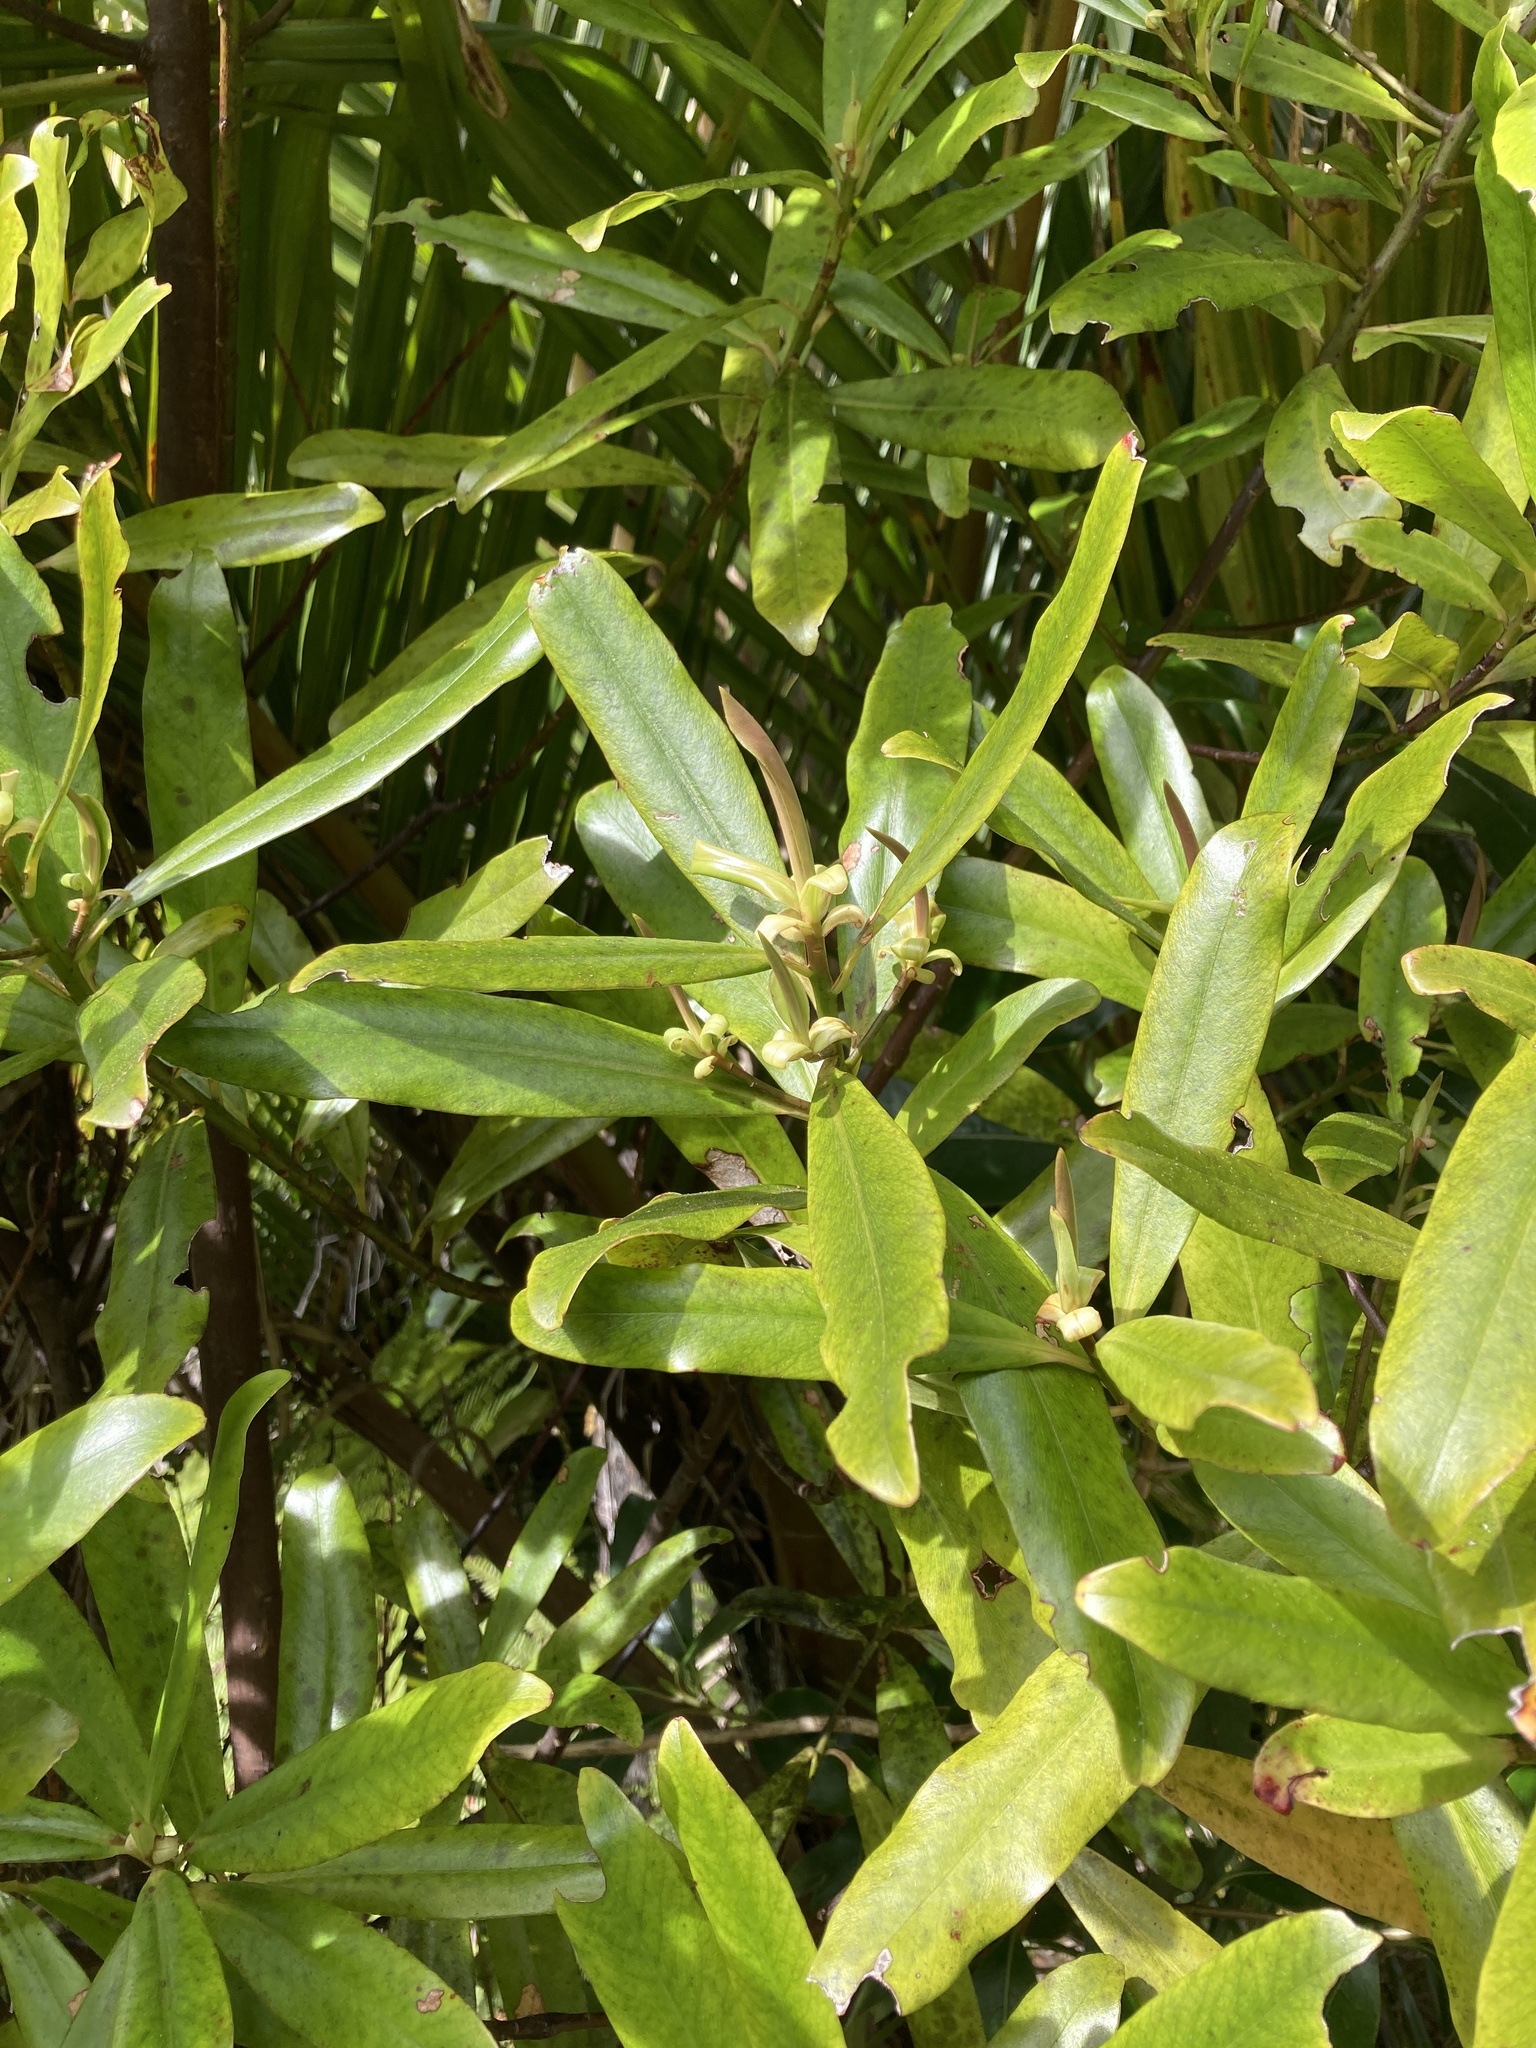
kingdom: Plantae
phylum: Tracheophyta
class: Magnoliopsida
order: Ericales
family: Primulaceae
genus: Myrsine
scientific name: Myrsine salicina
